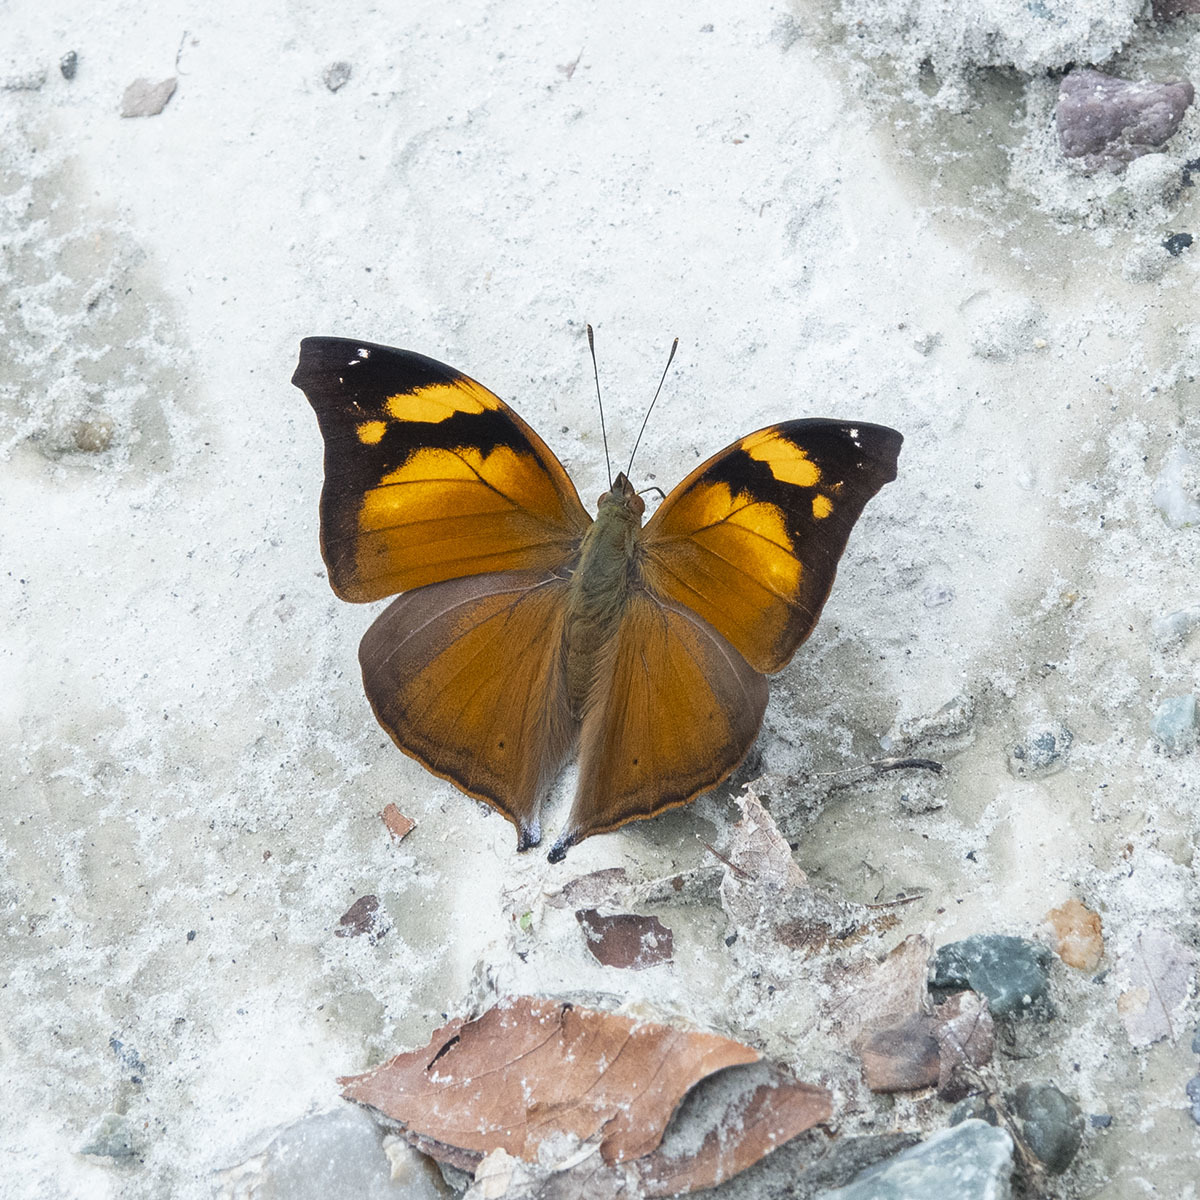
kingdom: Animalia
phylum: Arthropoda
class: Insecta
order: Lepidoptera
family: Nymphalidae
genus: Doleschallia
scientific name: Doleschallia bisaltide
